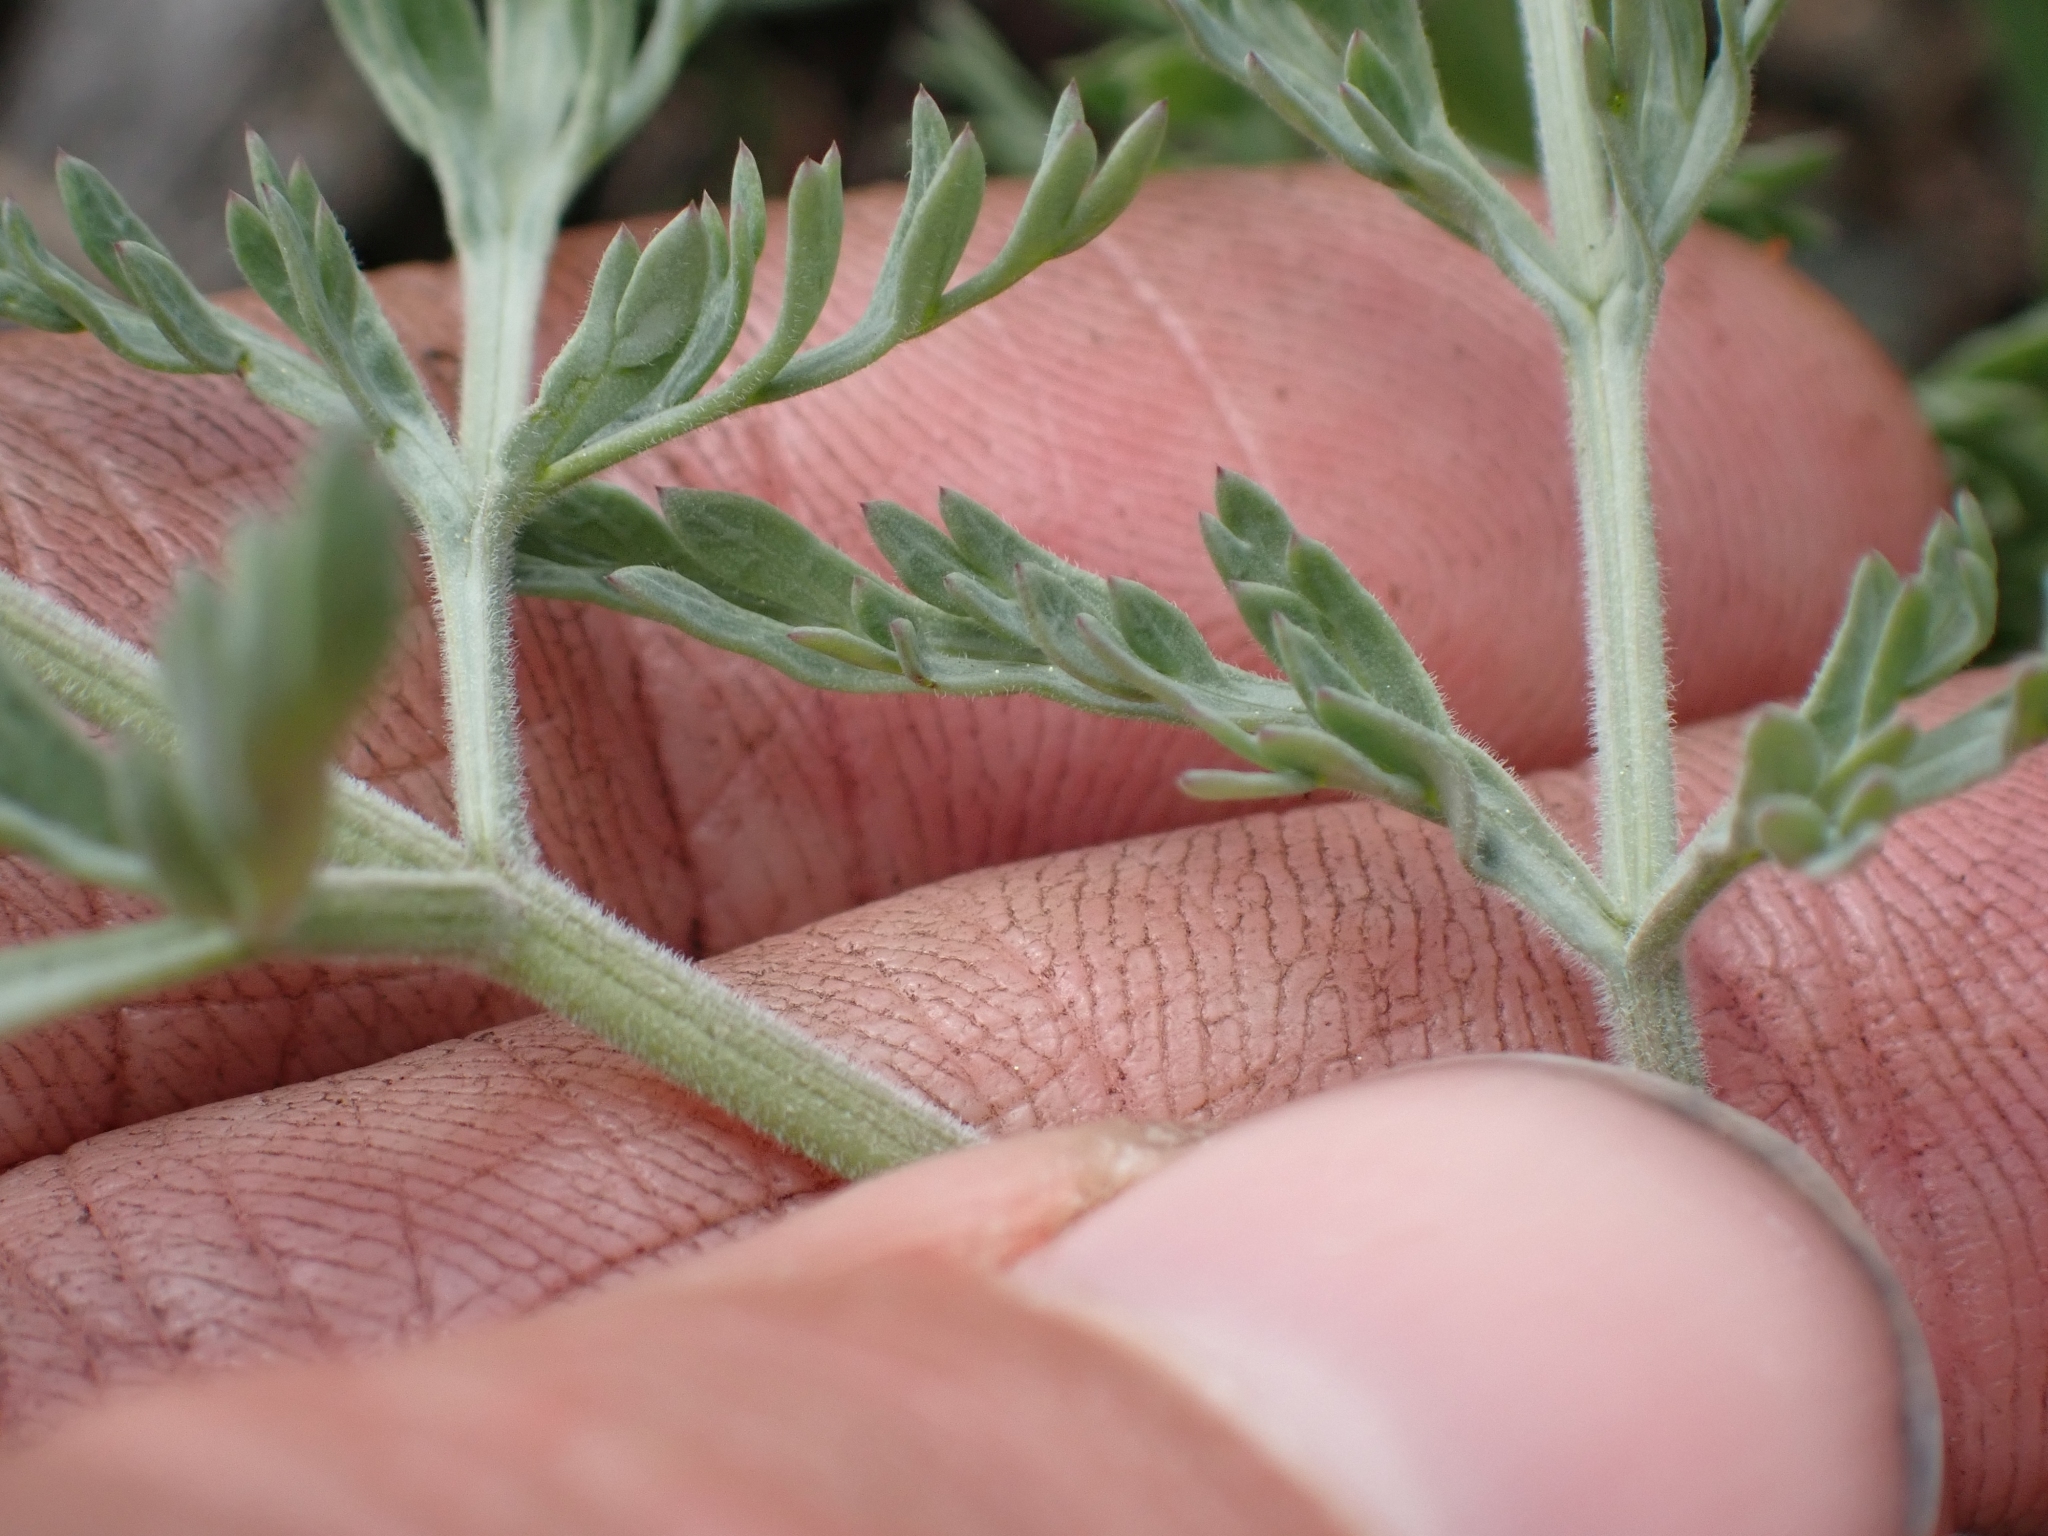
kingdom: Plantae
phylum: Tracheophyta
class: Magnoliopsida
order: Apiales
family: Apiaceae
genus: Lomatium
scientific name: Lomatium macrocarpum
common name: Big-seed biscuitroot
